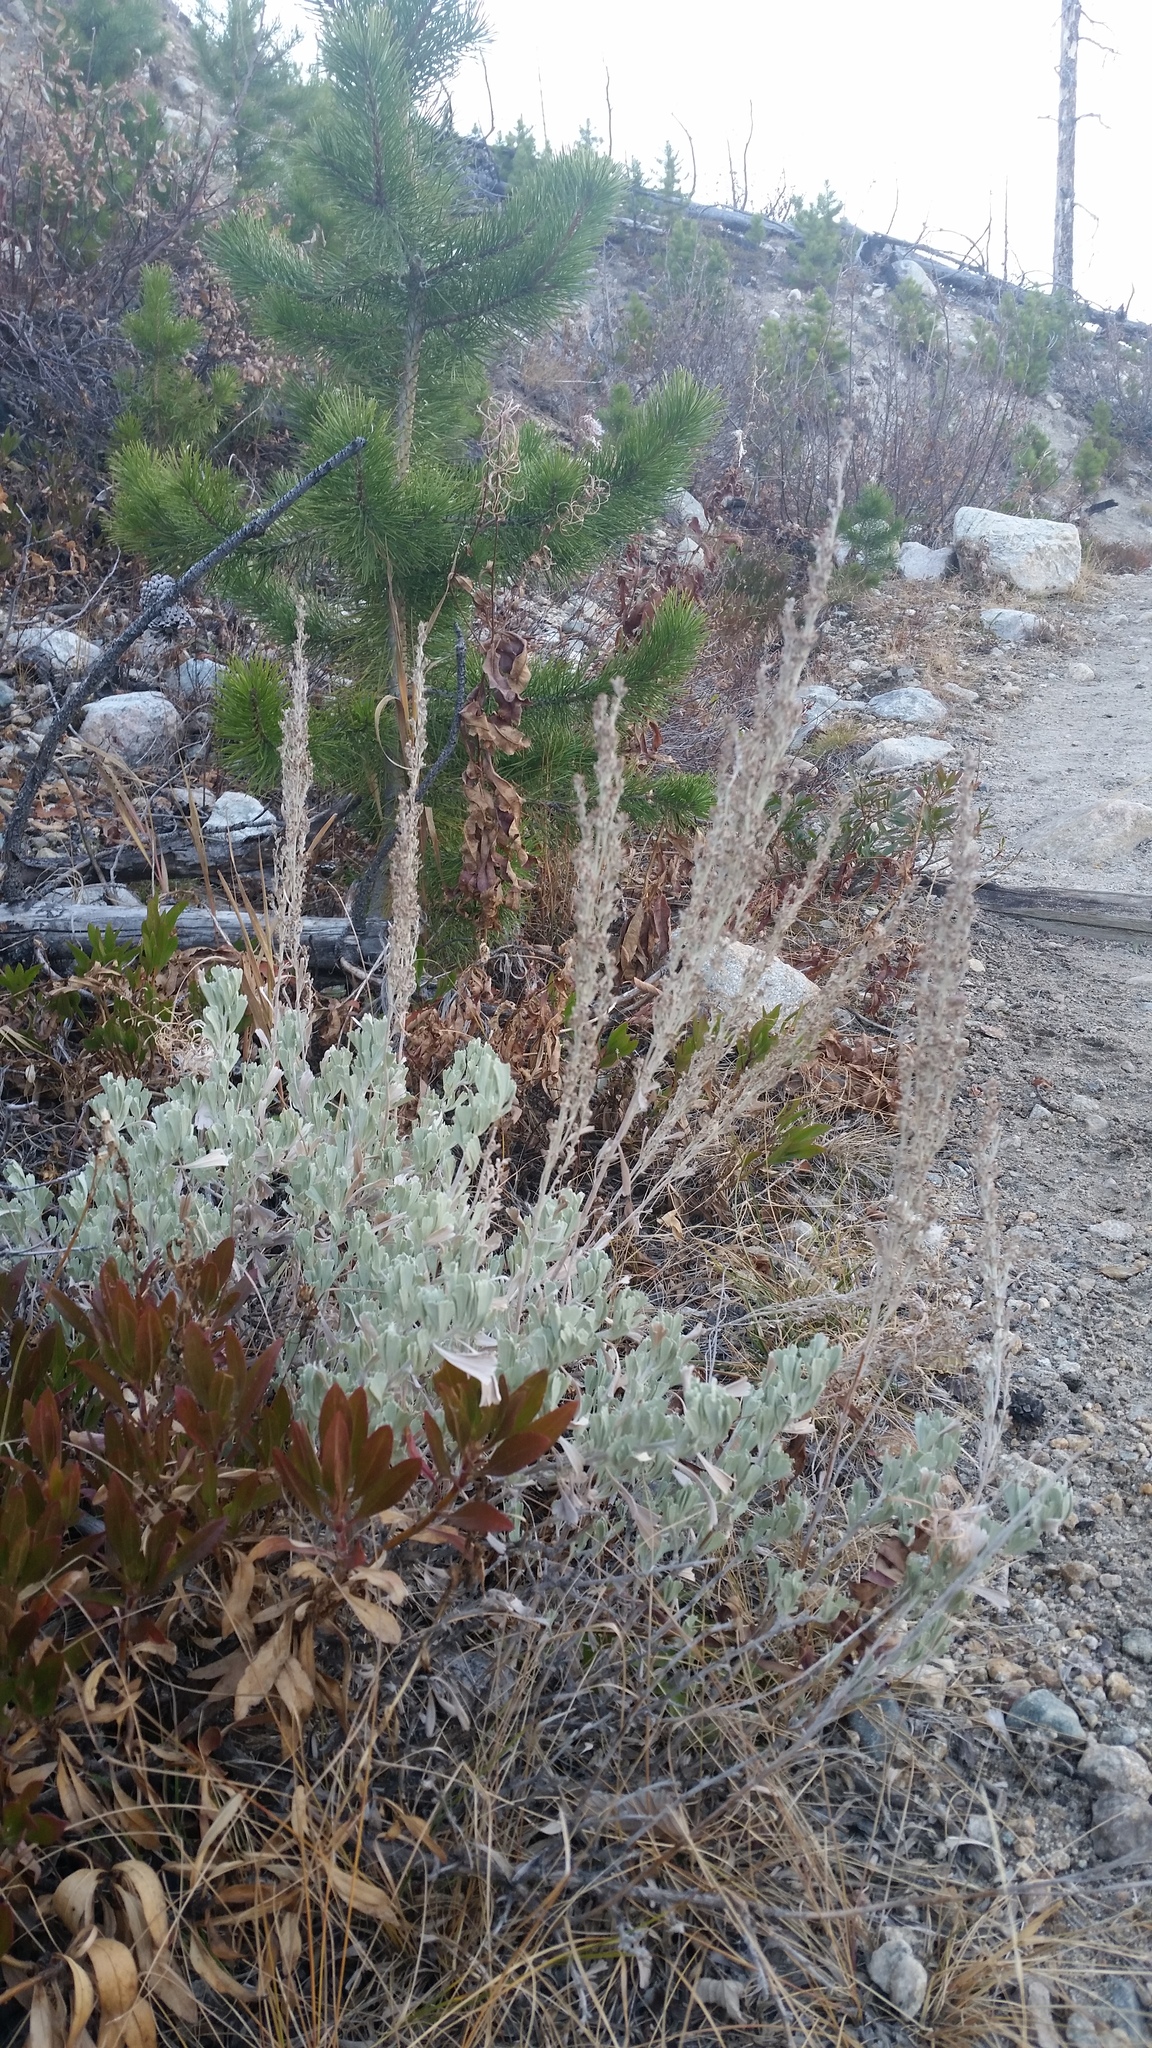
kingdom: Plantae
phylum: Tracheophyta
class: Magnoliopsida
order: Asterales
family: Asteraceae
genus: Artemisia
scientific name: Artemisia tridentata
